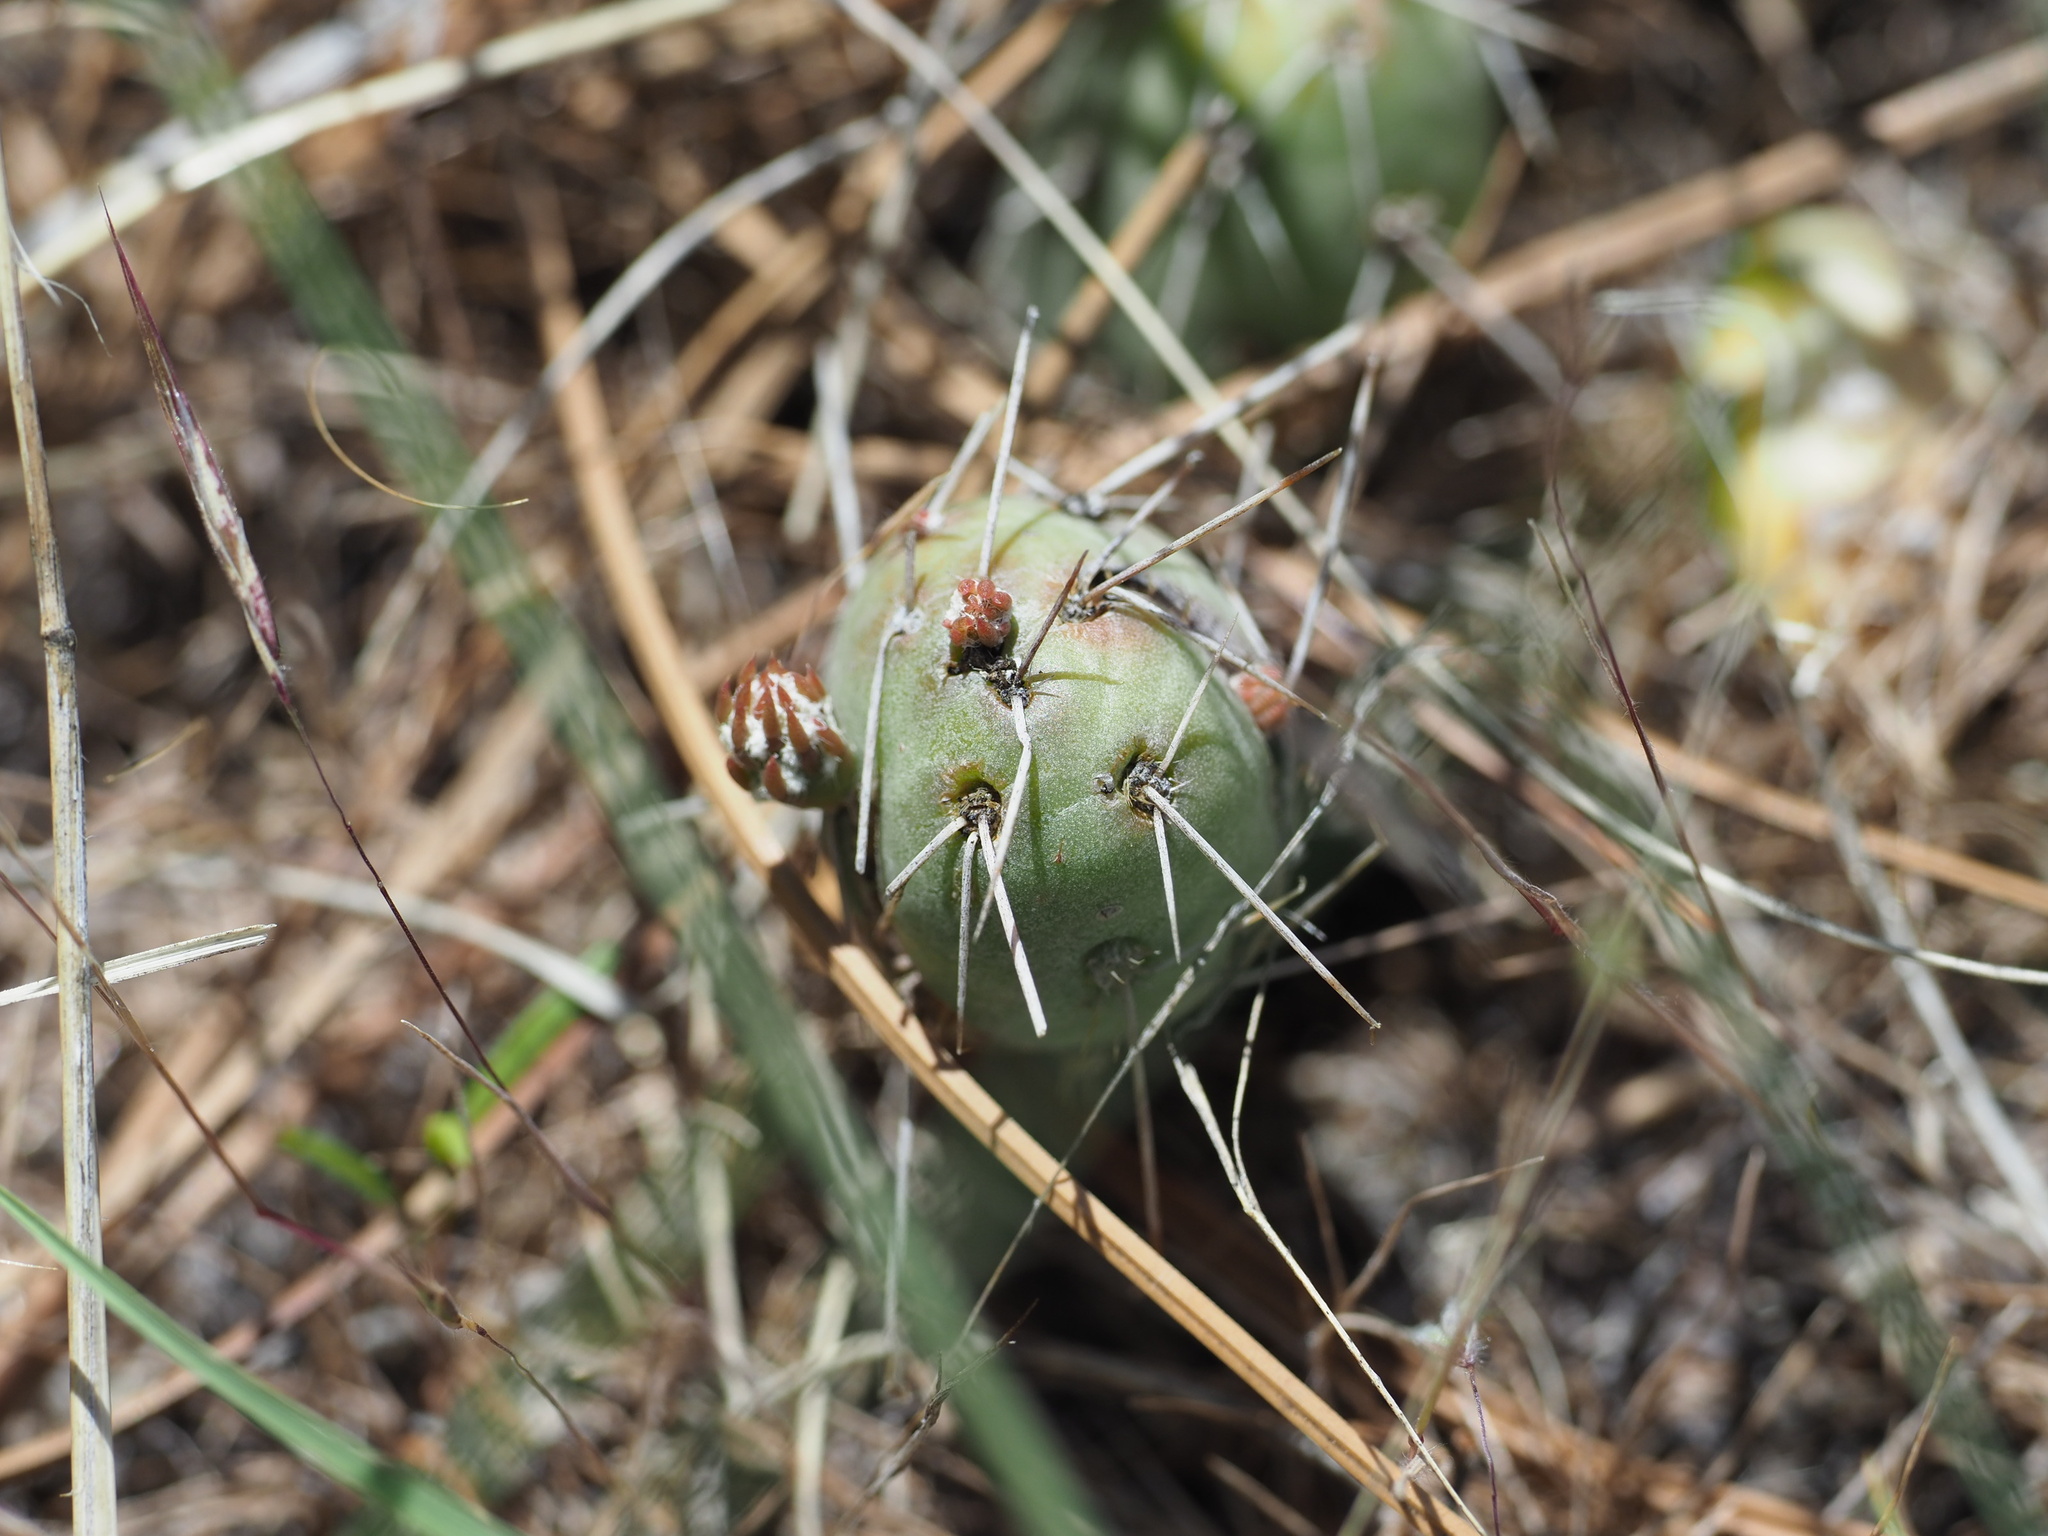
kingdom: Plantae
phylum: Tracheophyta
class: Magnoliopsida
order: Caryophyllales
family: Cactaceae
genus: Opuntia
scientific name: Opuntia fragilis
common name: Brittle cactus
